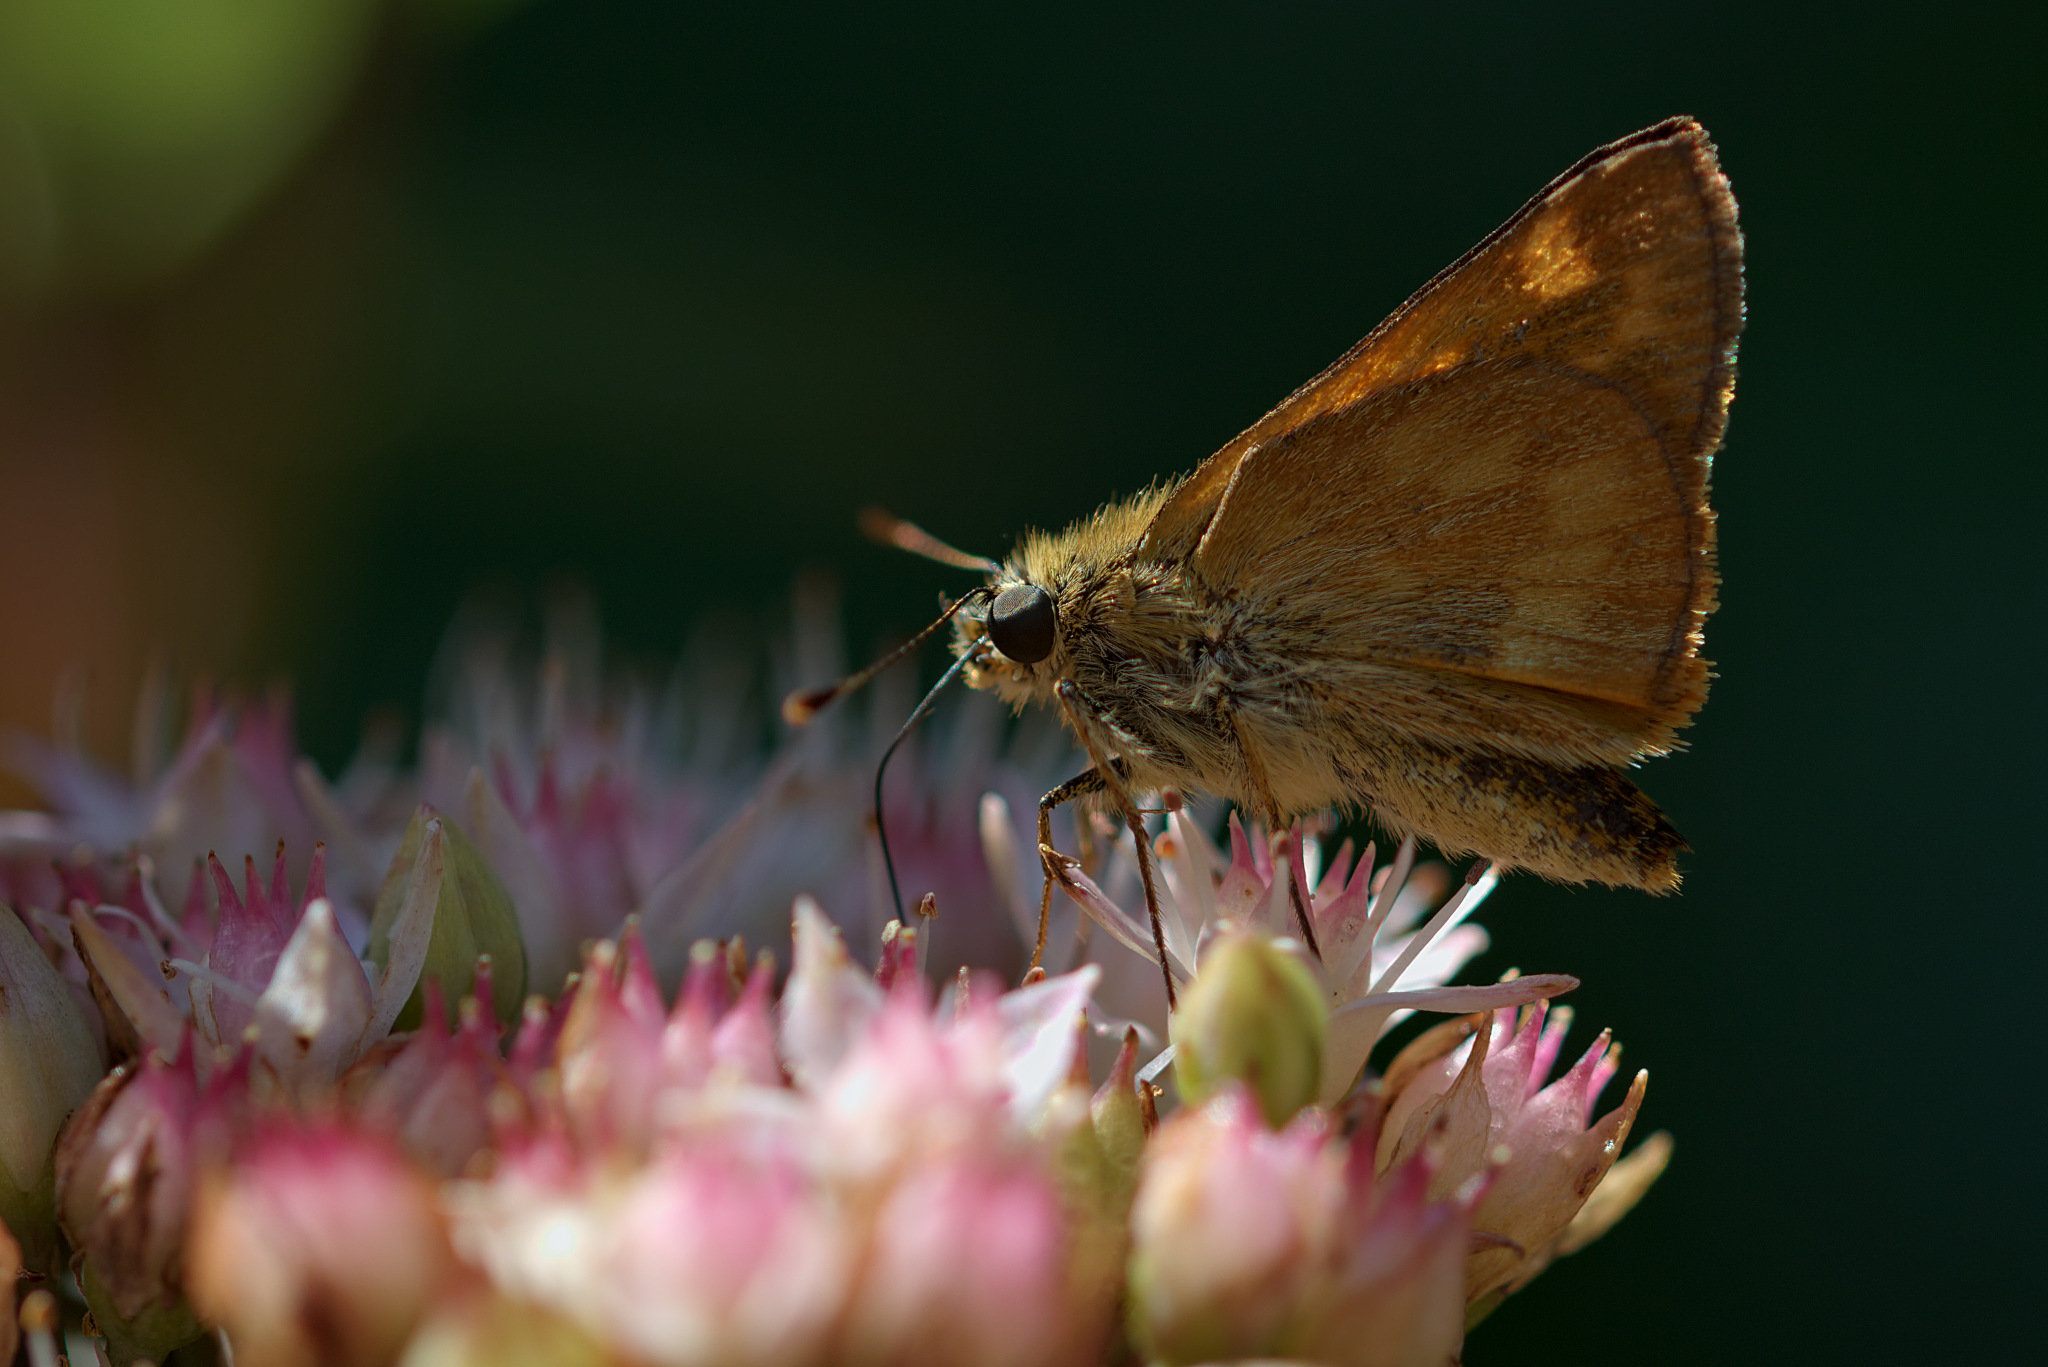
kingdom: Animalia
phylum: Arthropoda
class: Insecta
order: Lepidoptera
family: Hesperiidae
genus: Ochlodes
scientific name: Ochlodes sylvanoides
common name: Woodland skipper
